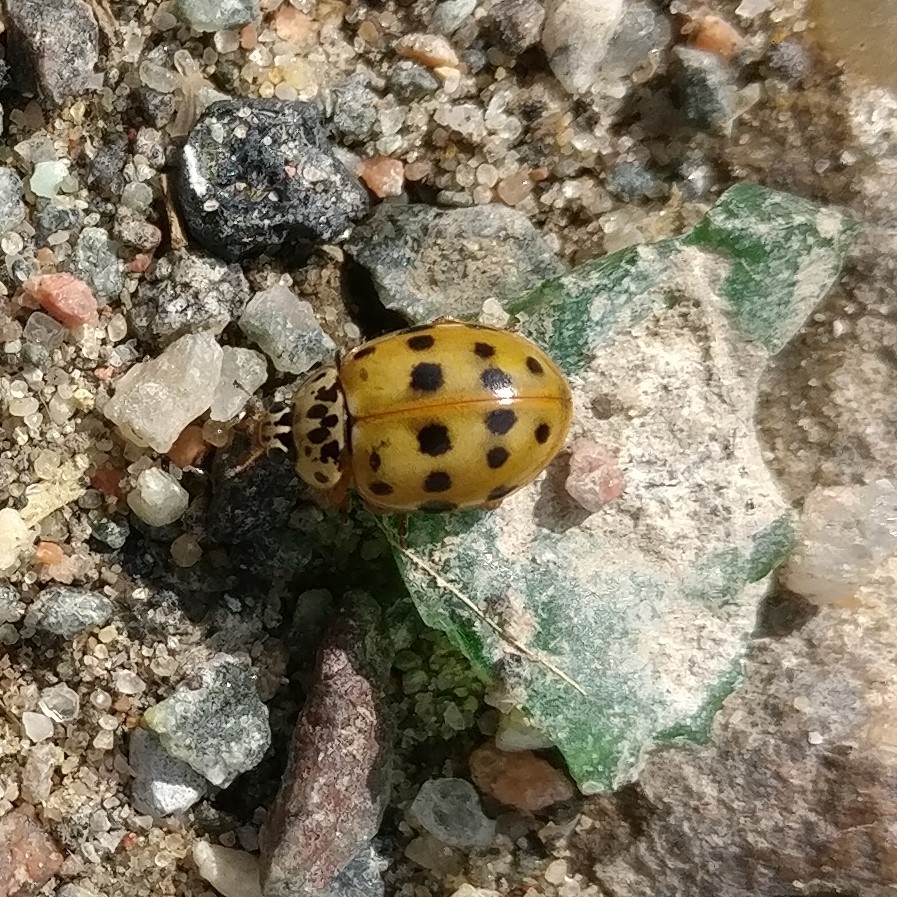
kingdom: Animalia
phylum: Arthropoda
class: Insecta
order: Coleoptera
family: Coccinellidae
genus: Harmonia
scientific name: Harmonia quadripunctata
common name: Cream-streaked ladybird
